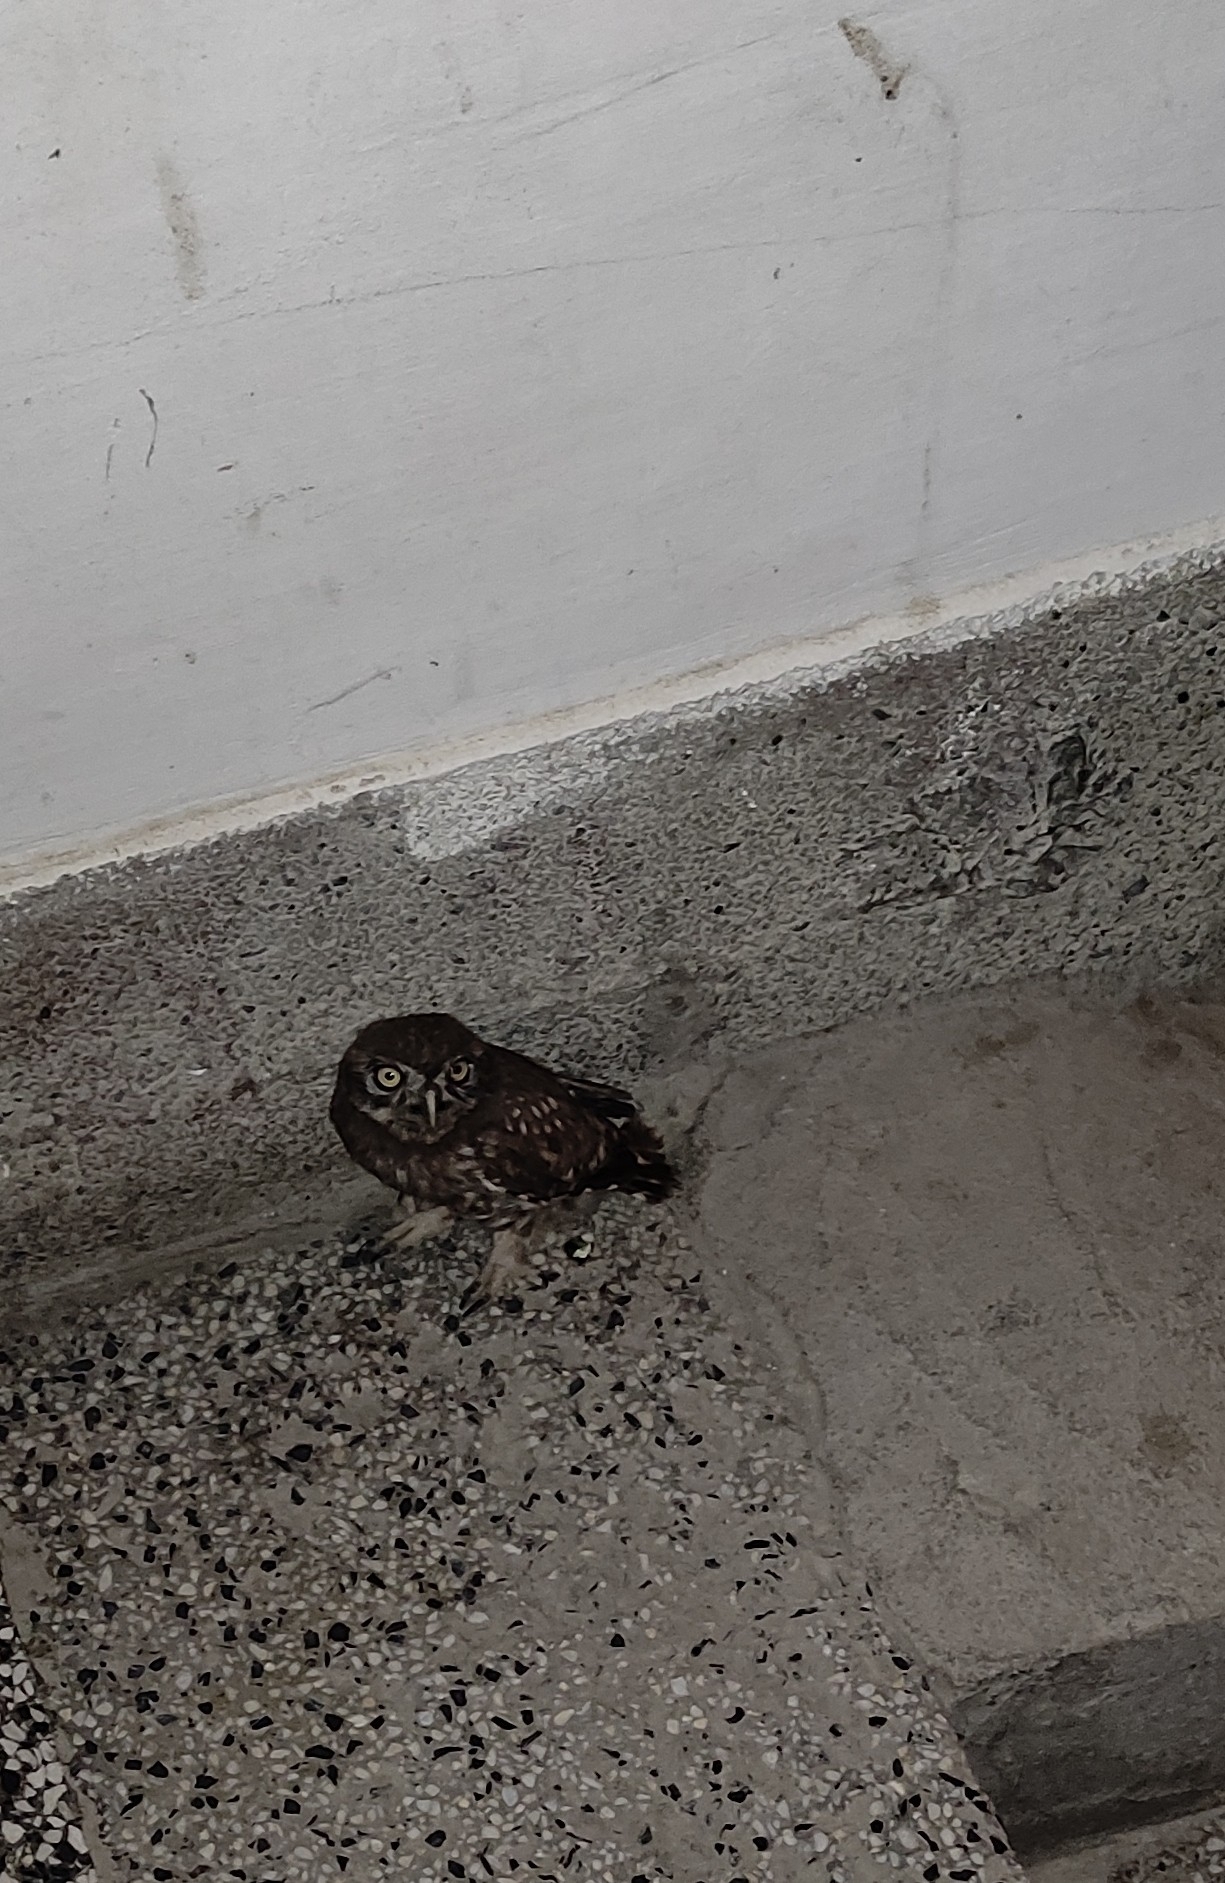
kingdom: Animalia
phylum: Chordata
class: Aves
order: Strigiformes
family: Strigidae
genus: Athene
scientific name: Athene noctua
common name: Little owl
